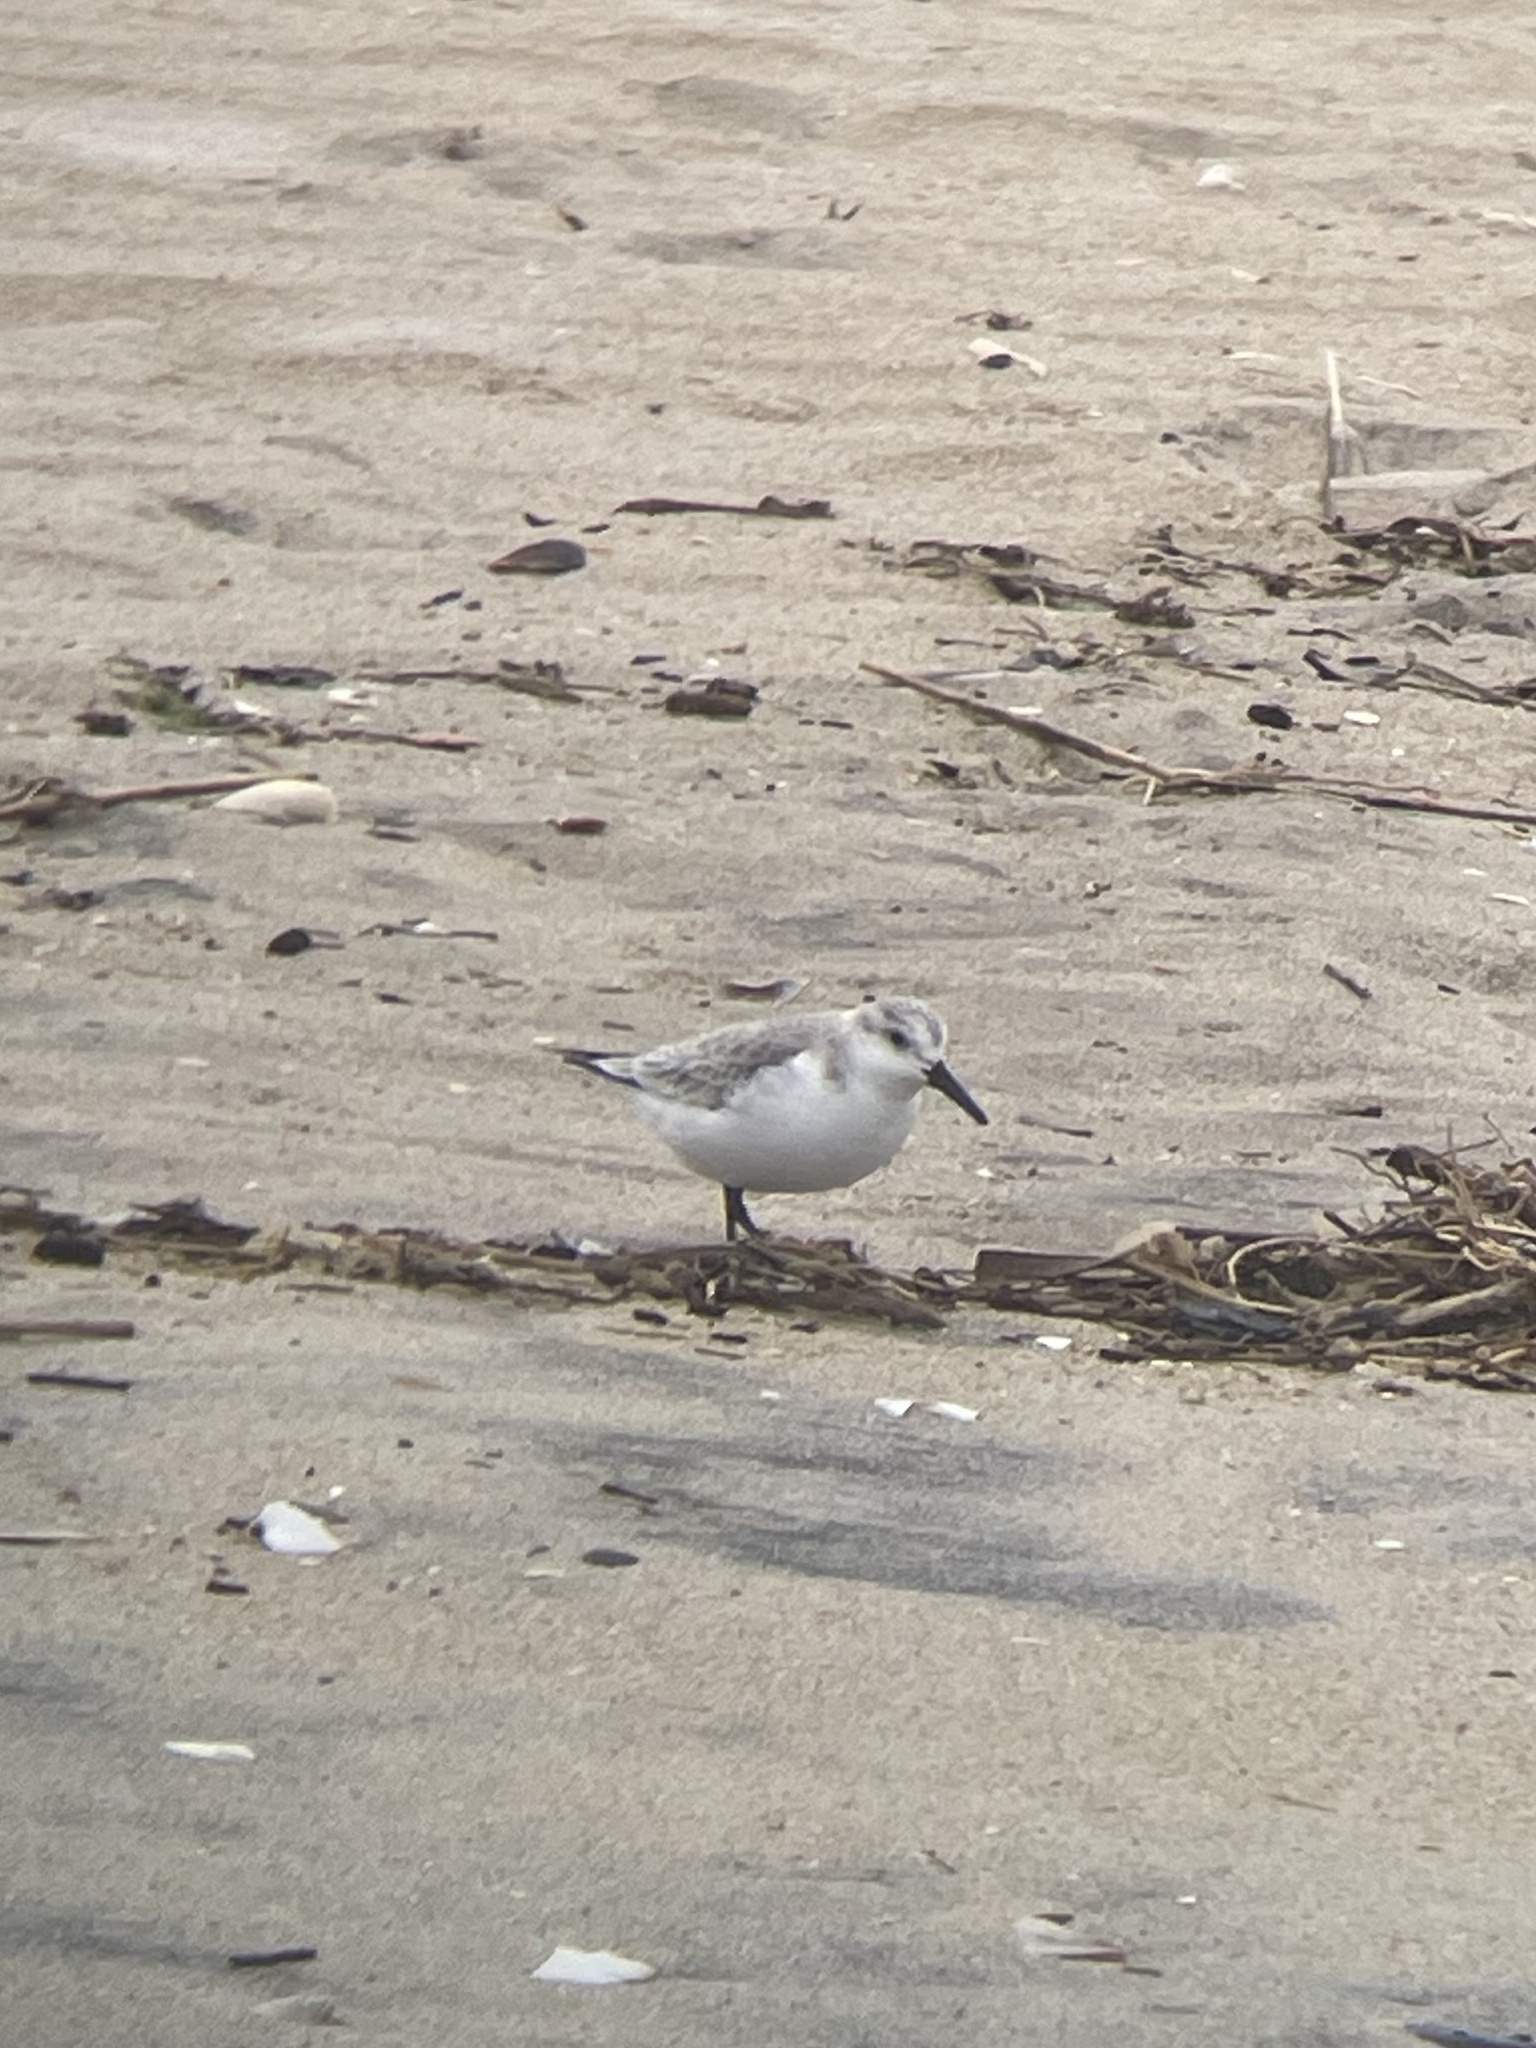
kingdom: Animalia
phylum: Chordata
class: Aves
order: Charadriiformes
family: Scolopacidae
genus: Calidris
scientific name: Calidris alba
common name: Sanderling
